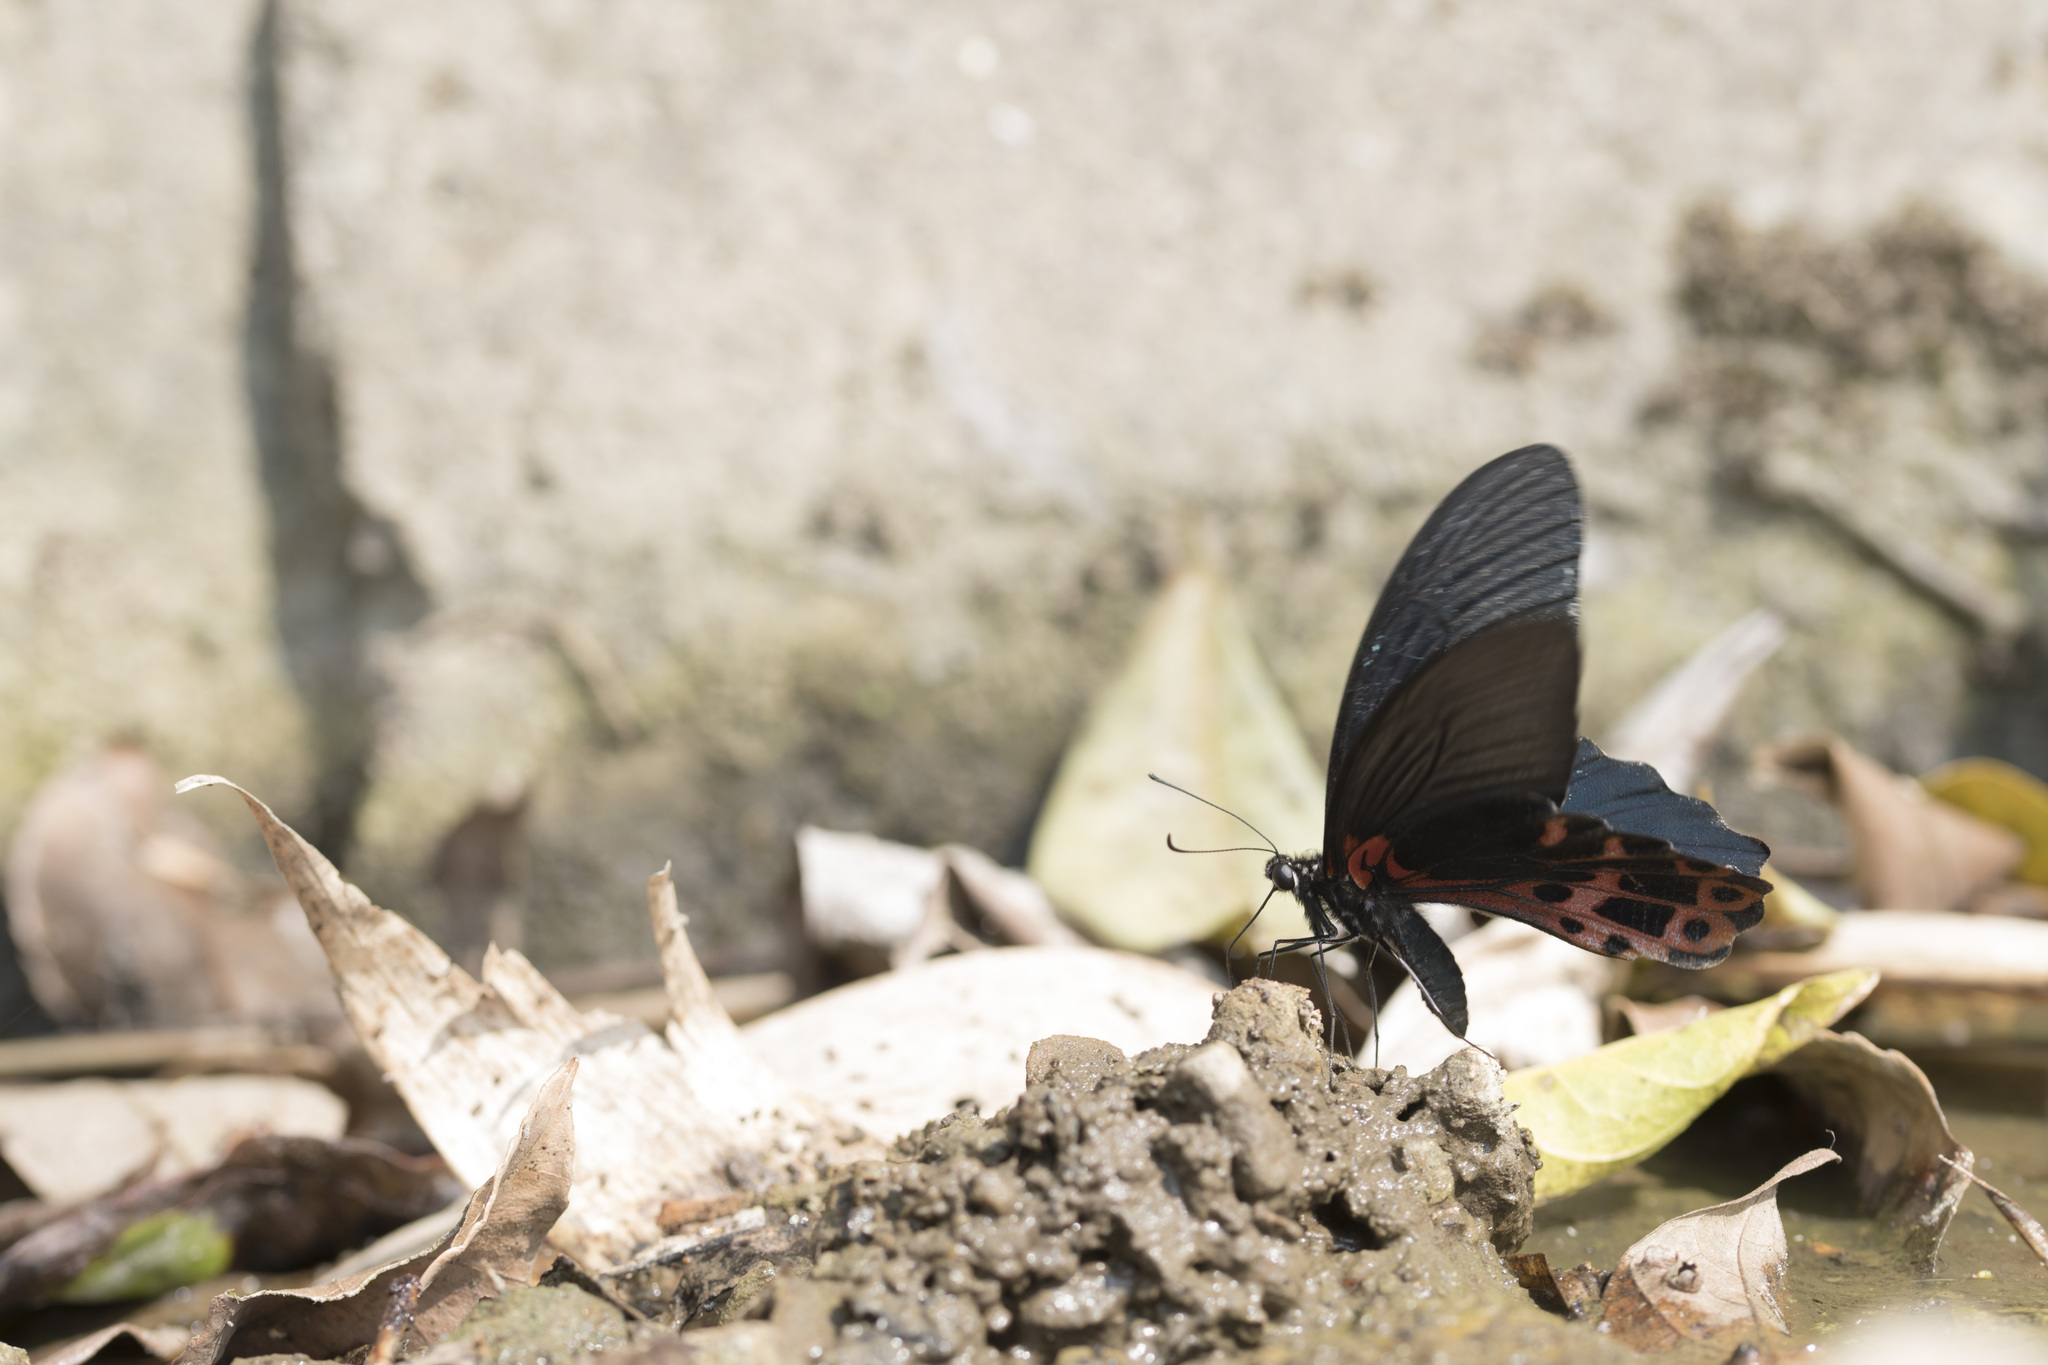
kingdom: Animalia
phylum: Arthropoda
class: Insecta
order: Lepidoptera
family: Papilionidae
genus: Papilio
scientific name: Papilio thaiwanus
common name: Formosan swallowtail
